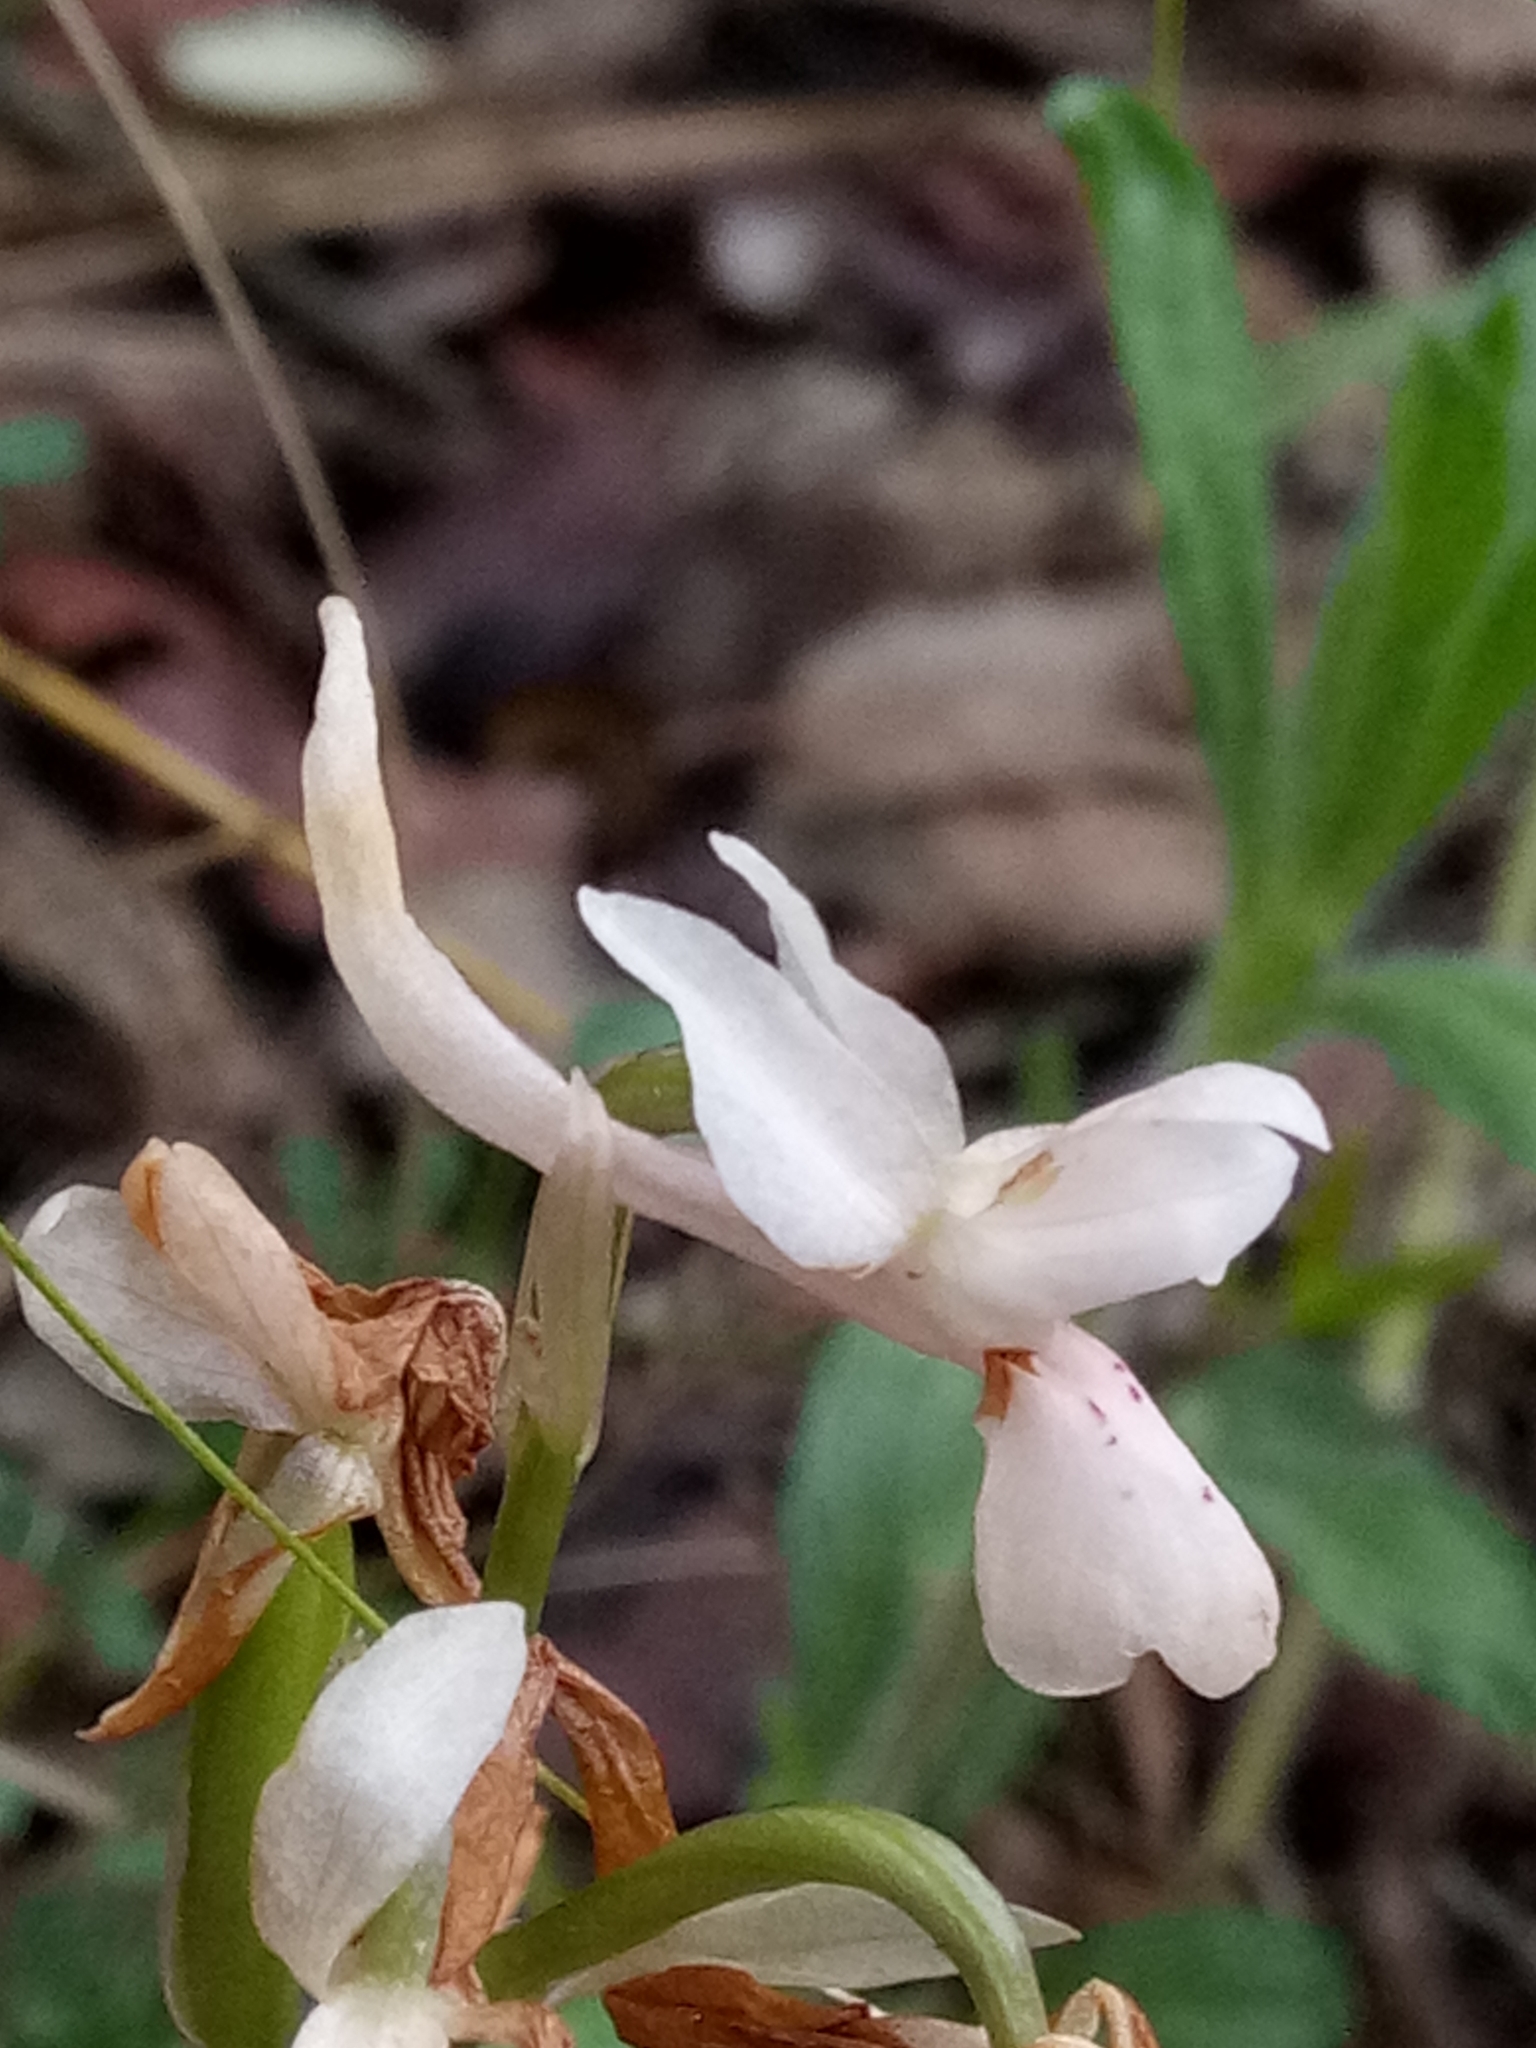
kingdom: Plantae
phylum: Tracheophyta
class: Liliopsida
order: Asparagales
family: Orchidaceae
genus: Orchis
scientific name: Orchis laeta
